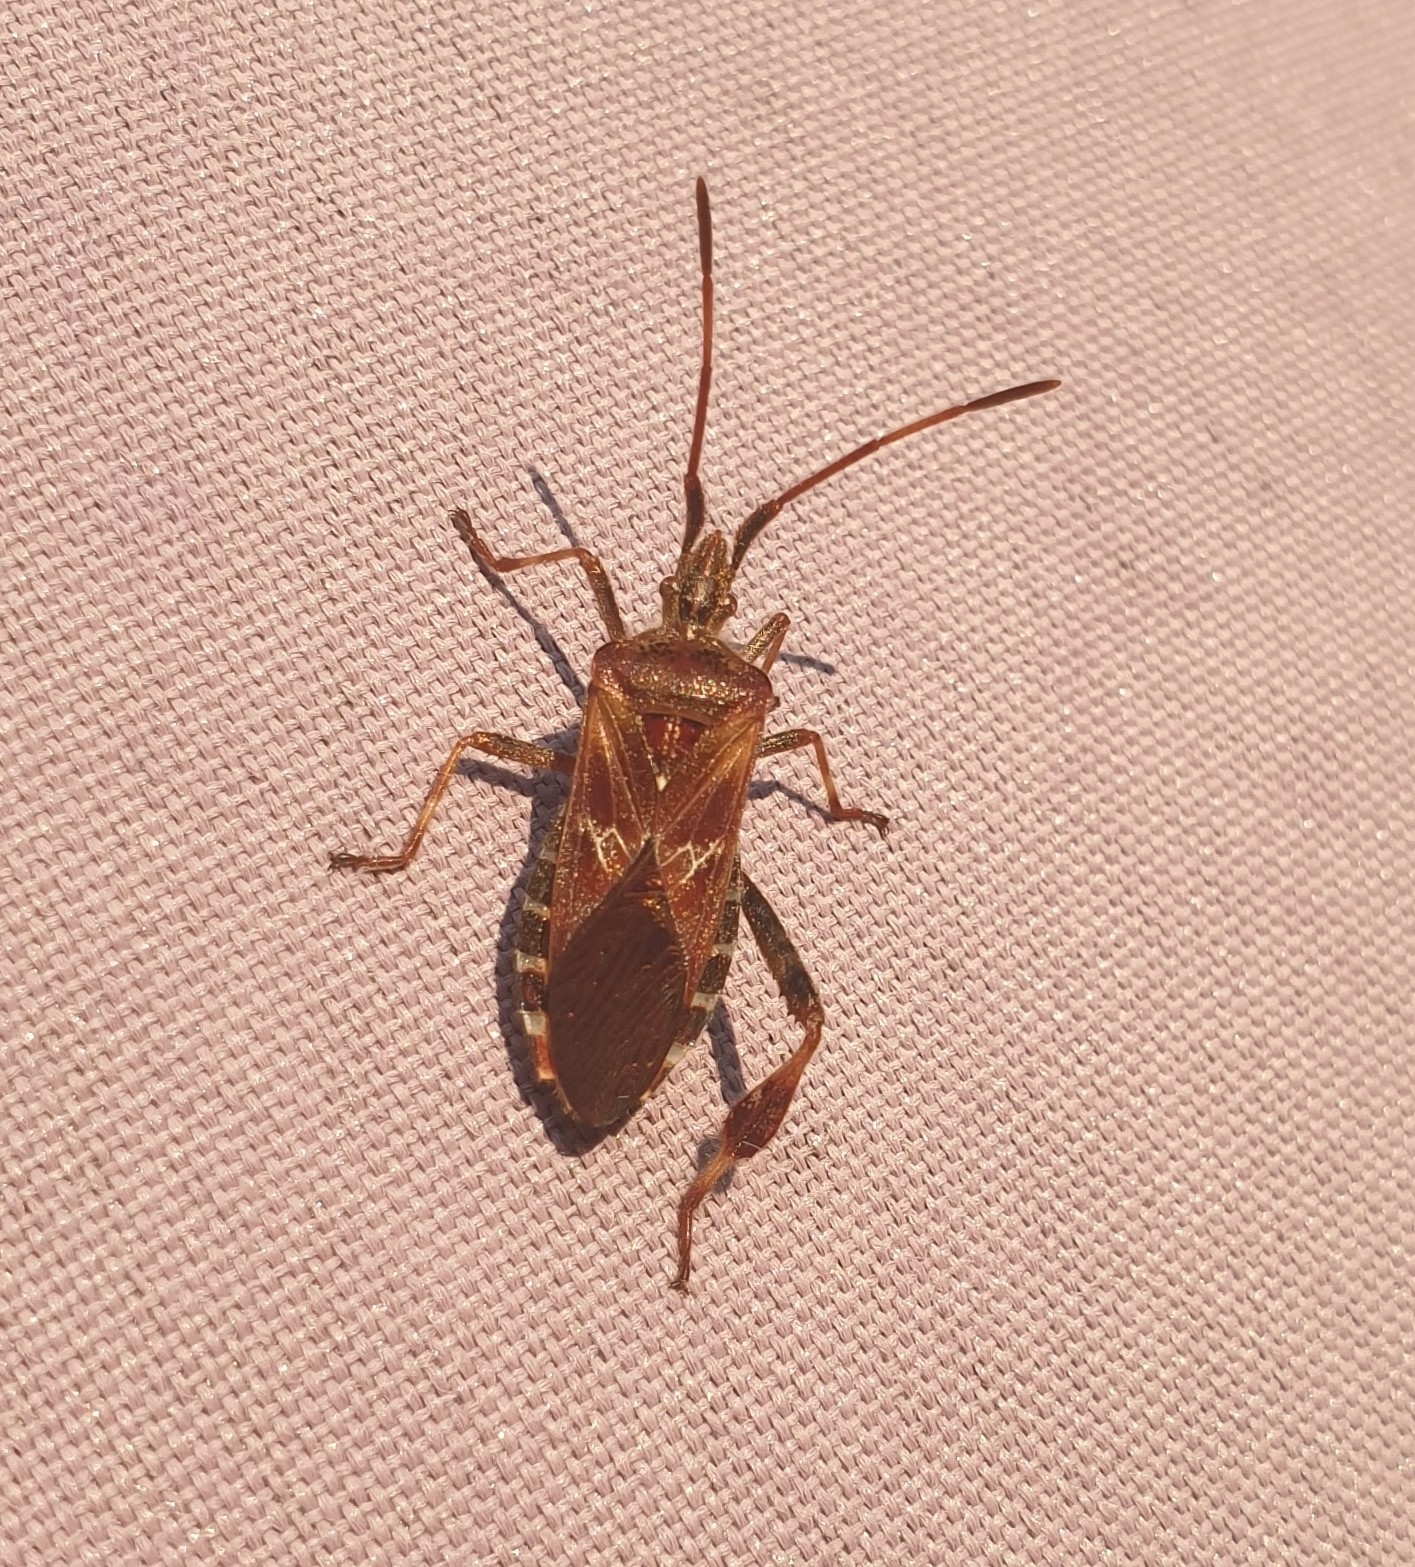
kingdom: Animalia
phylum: Arthropoda
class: Insecta
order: Hemiptera
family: Coreidae
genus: Leptoglossus
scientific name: Leptoglossus occidentalis
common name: Western conifer-seed bug
